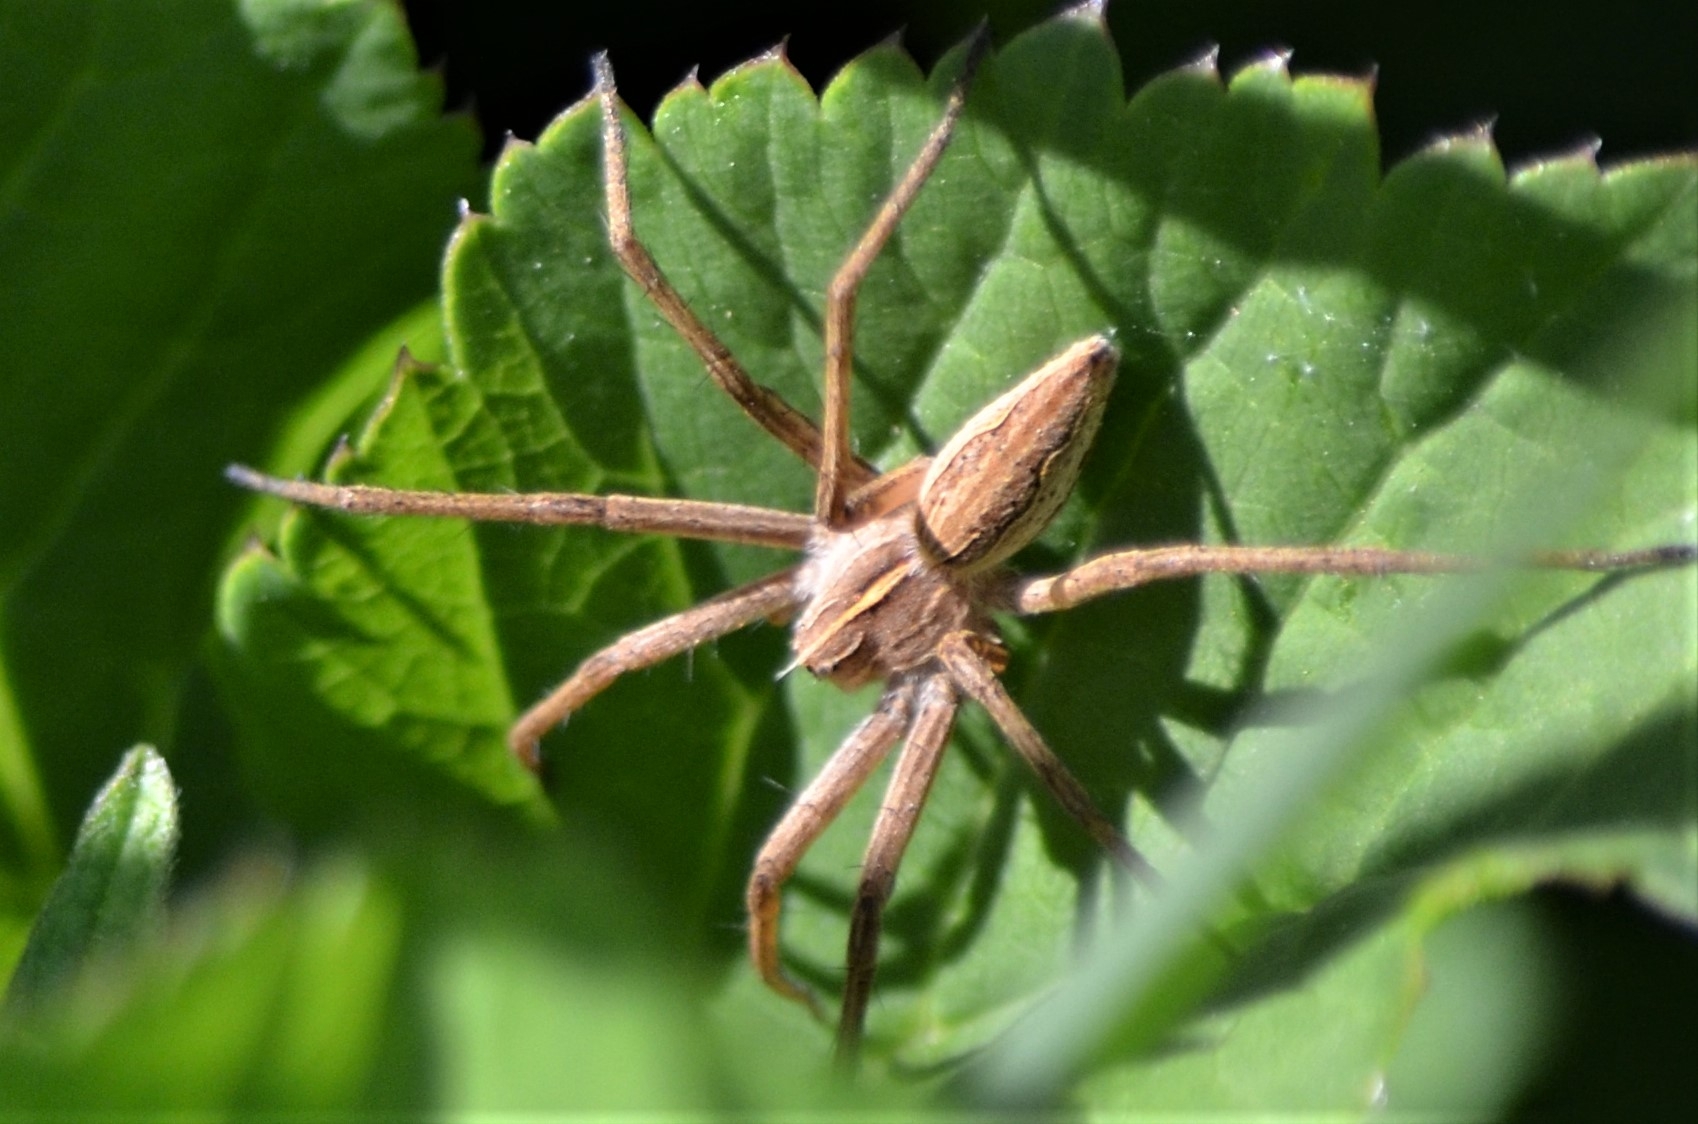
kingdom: Animalia
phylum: Arthropoda
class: Arachnida
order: Araneae
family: Pisauridae
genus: Pisaura
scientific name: Pisaura mirabilis
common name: Tent spider
